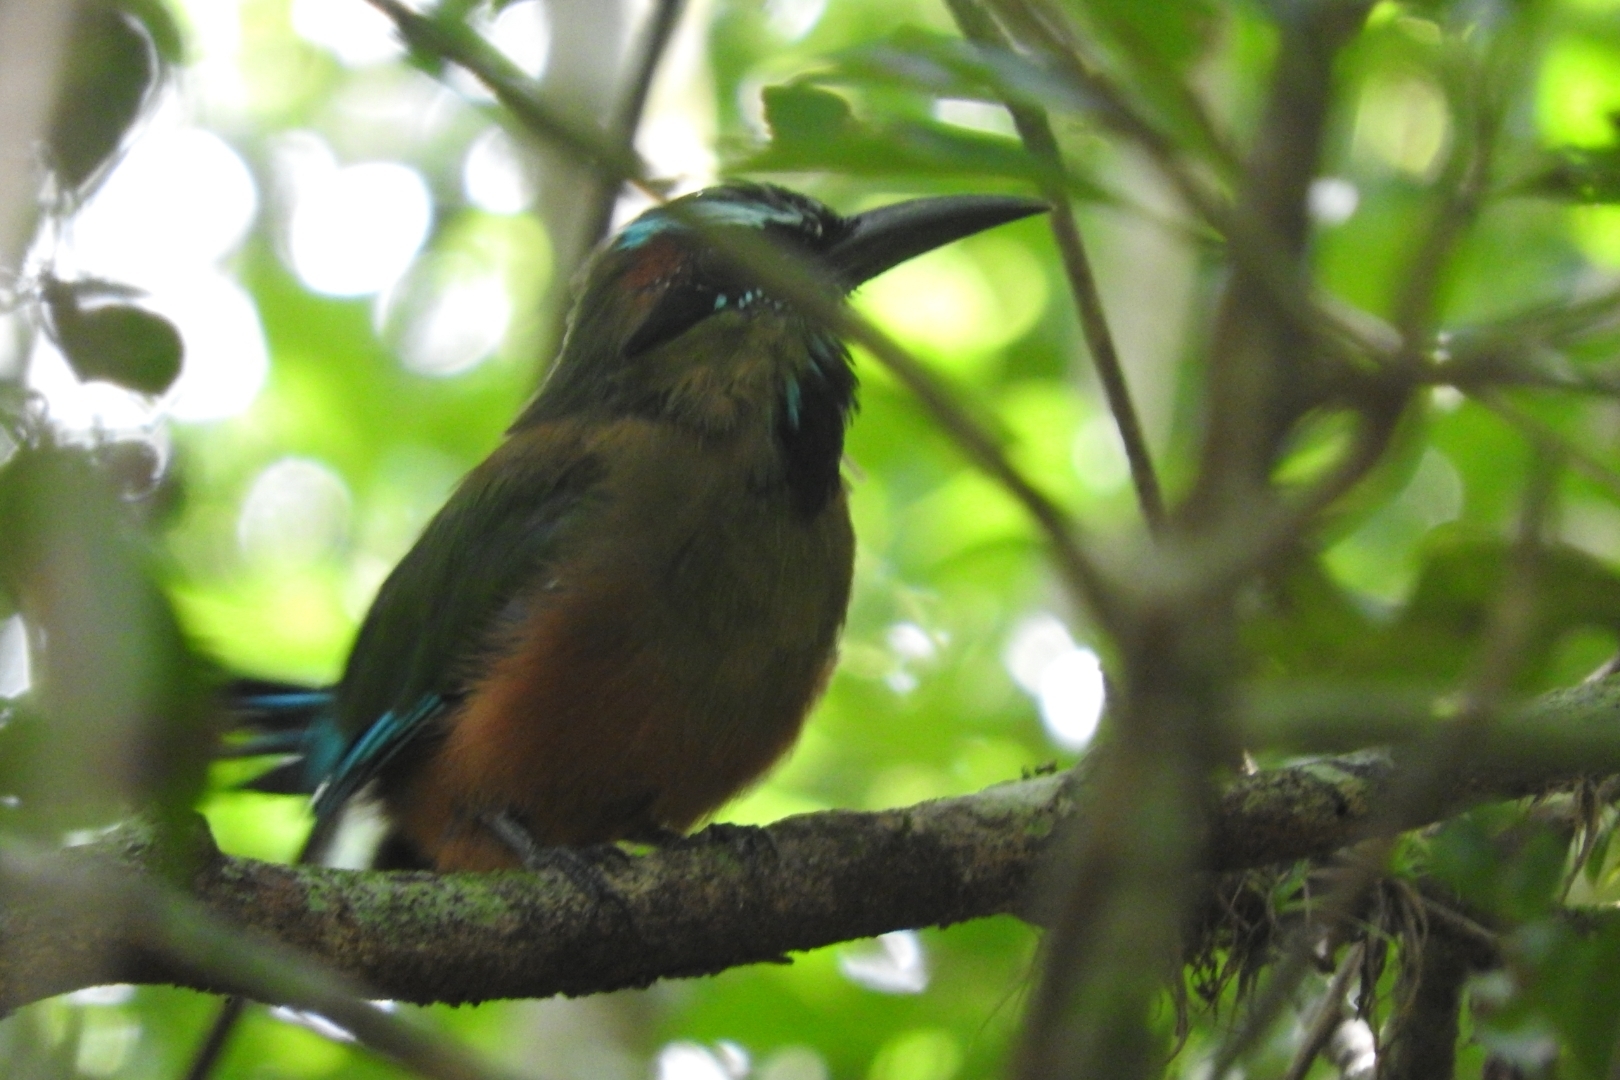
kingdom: Animalia
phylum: Chordata
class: Aves
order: Coraciiformes
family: Momotidae
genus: Eumomota
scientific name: Eumomota superciliosa
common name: Turquoise-browed motmot
